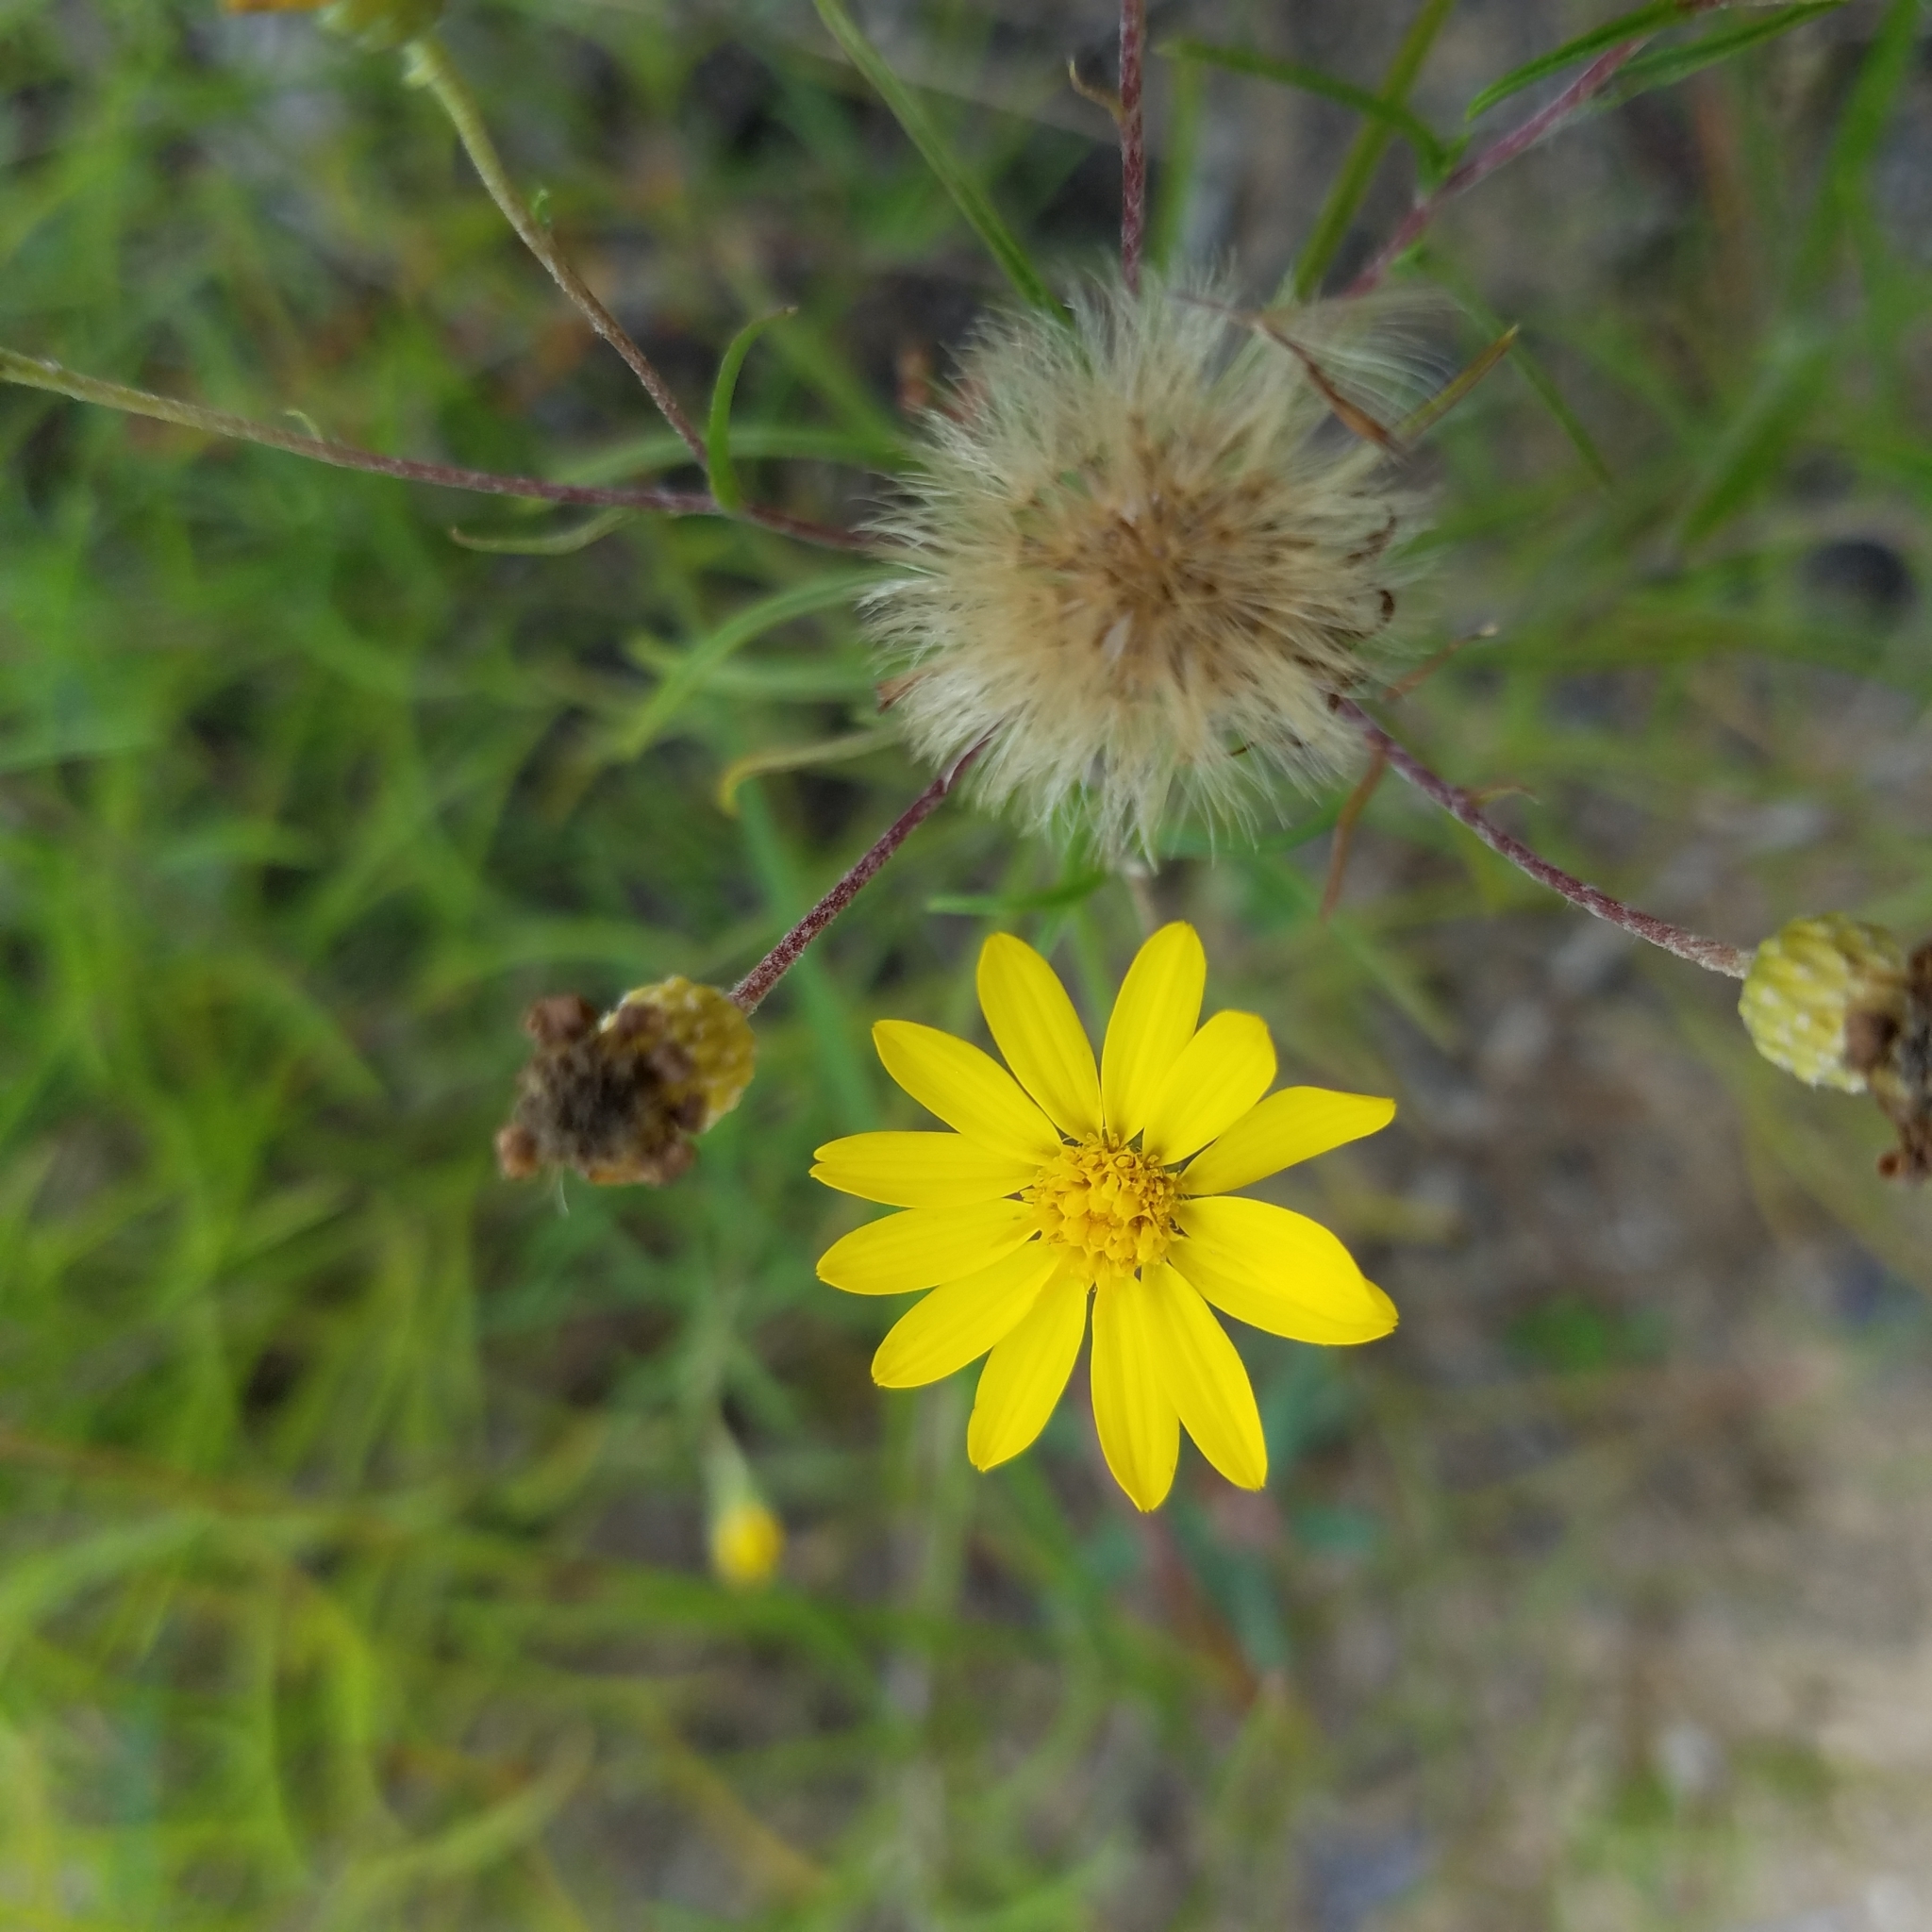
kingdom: Plantae
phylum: Tracheophyta
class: Magnoliopsida
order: Asterales
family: Asteraceae
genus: Pityopsis
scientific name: Pityopsis falcata
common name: Sickle-leaved goldenaster
